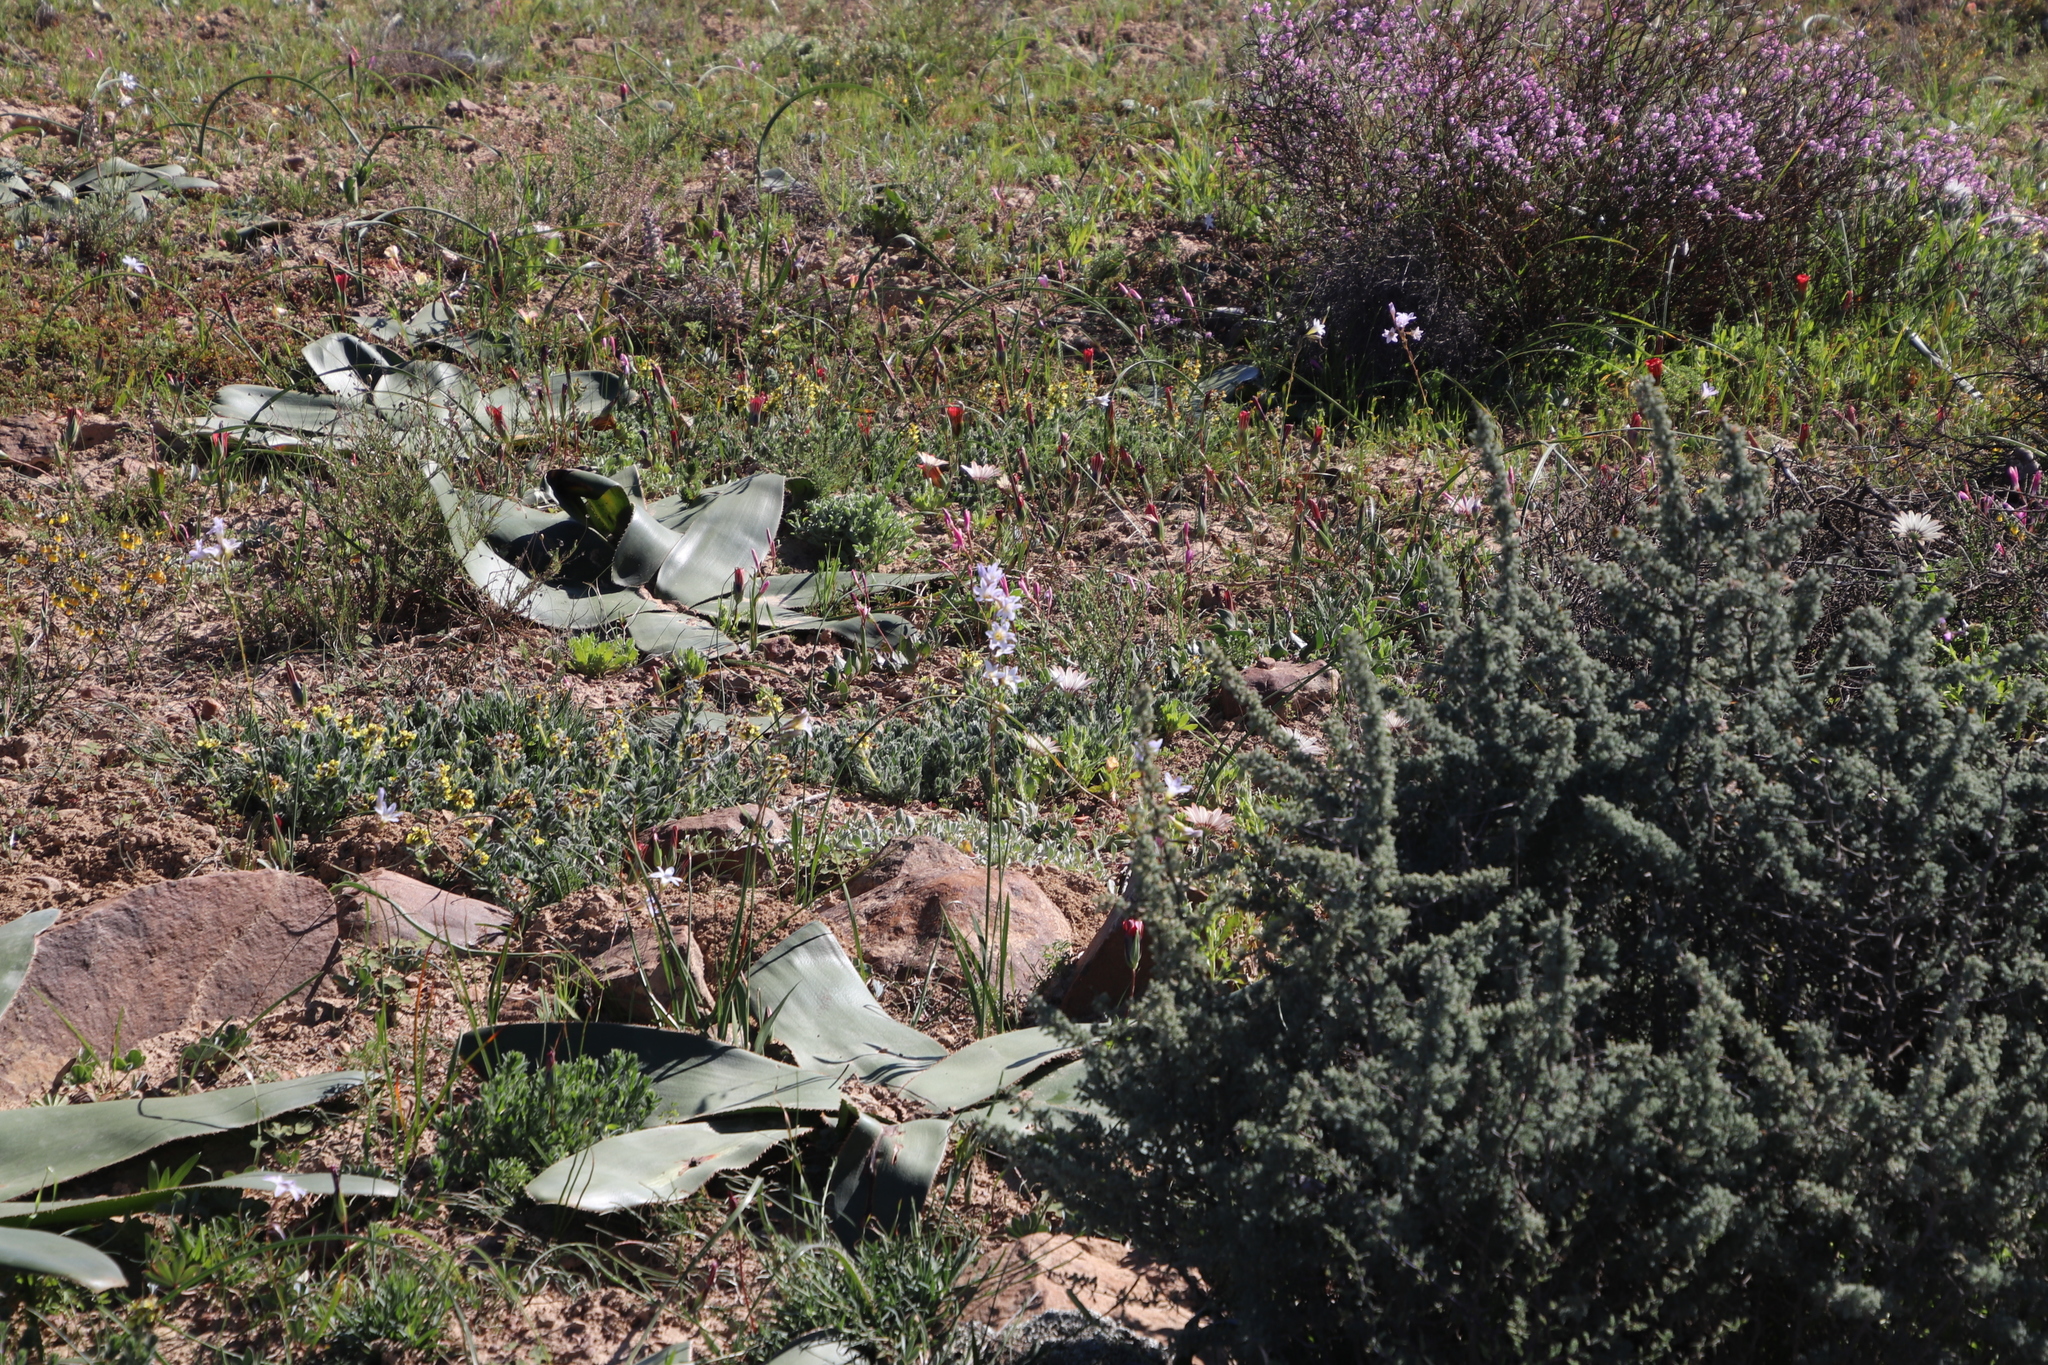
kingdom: Plantae
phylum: Tracheophyta
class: Liliopsida
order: Asparagales
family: Iridaceae
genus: Ixia
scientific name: Ixia rapunculoides
